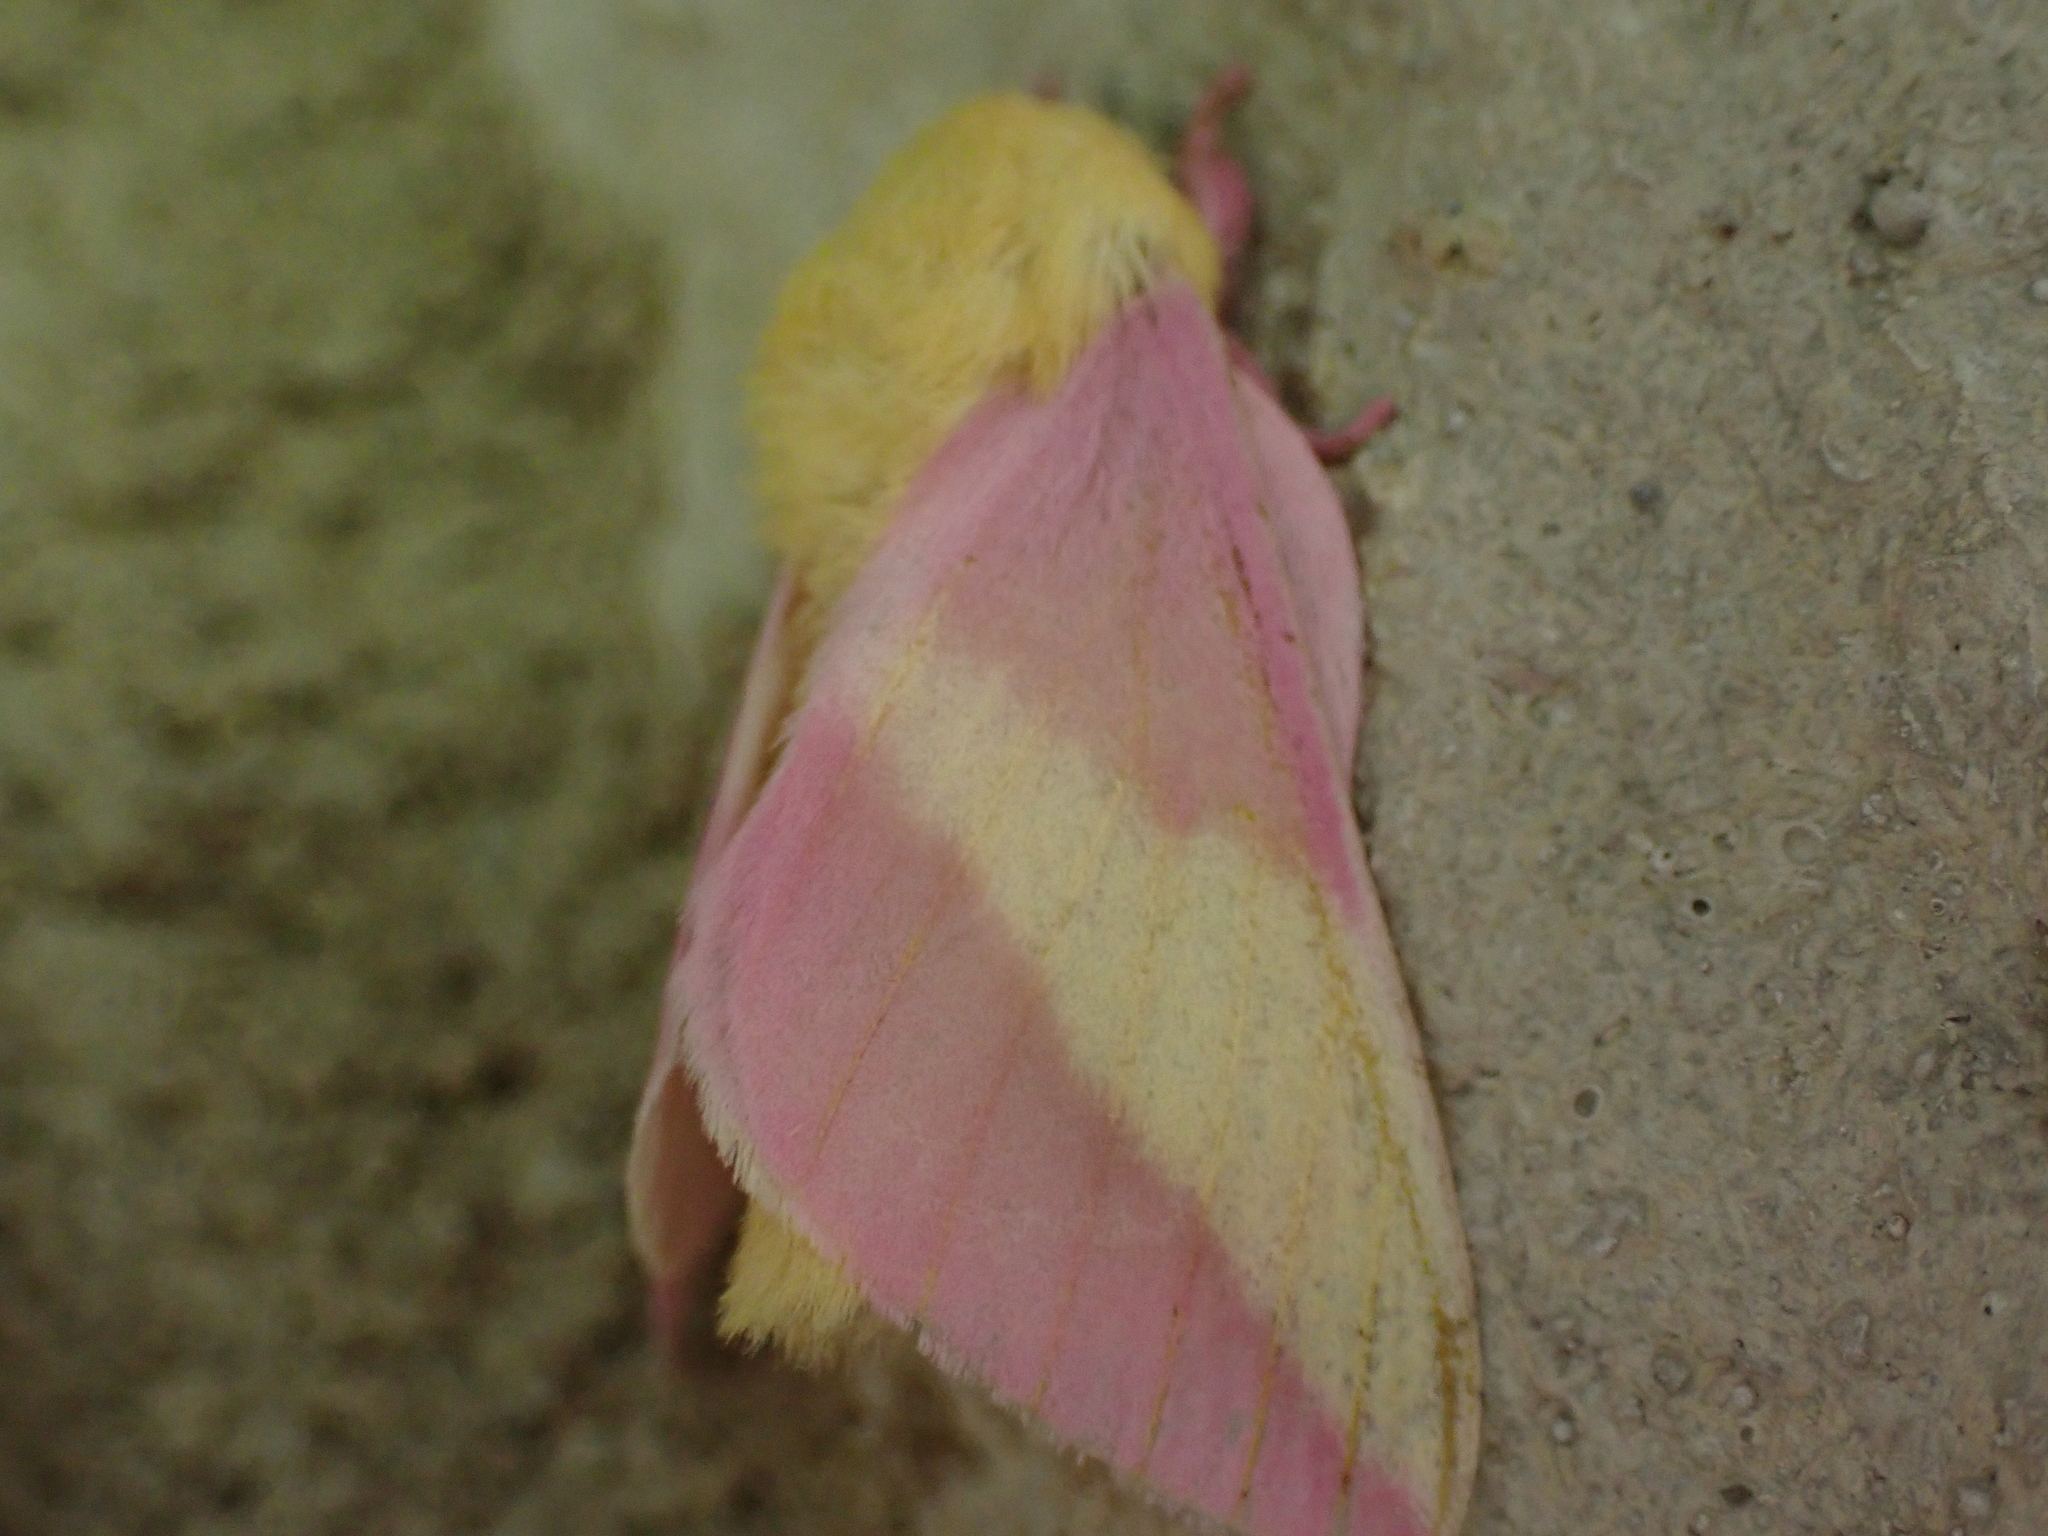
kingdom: Animalia
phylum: Arthropoda
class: Insecta
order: Lepidoptera
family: Saturniidae
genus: Dryocampa
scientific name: Dryocampa rubicunda
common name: Rosy maple moth
